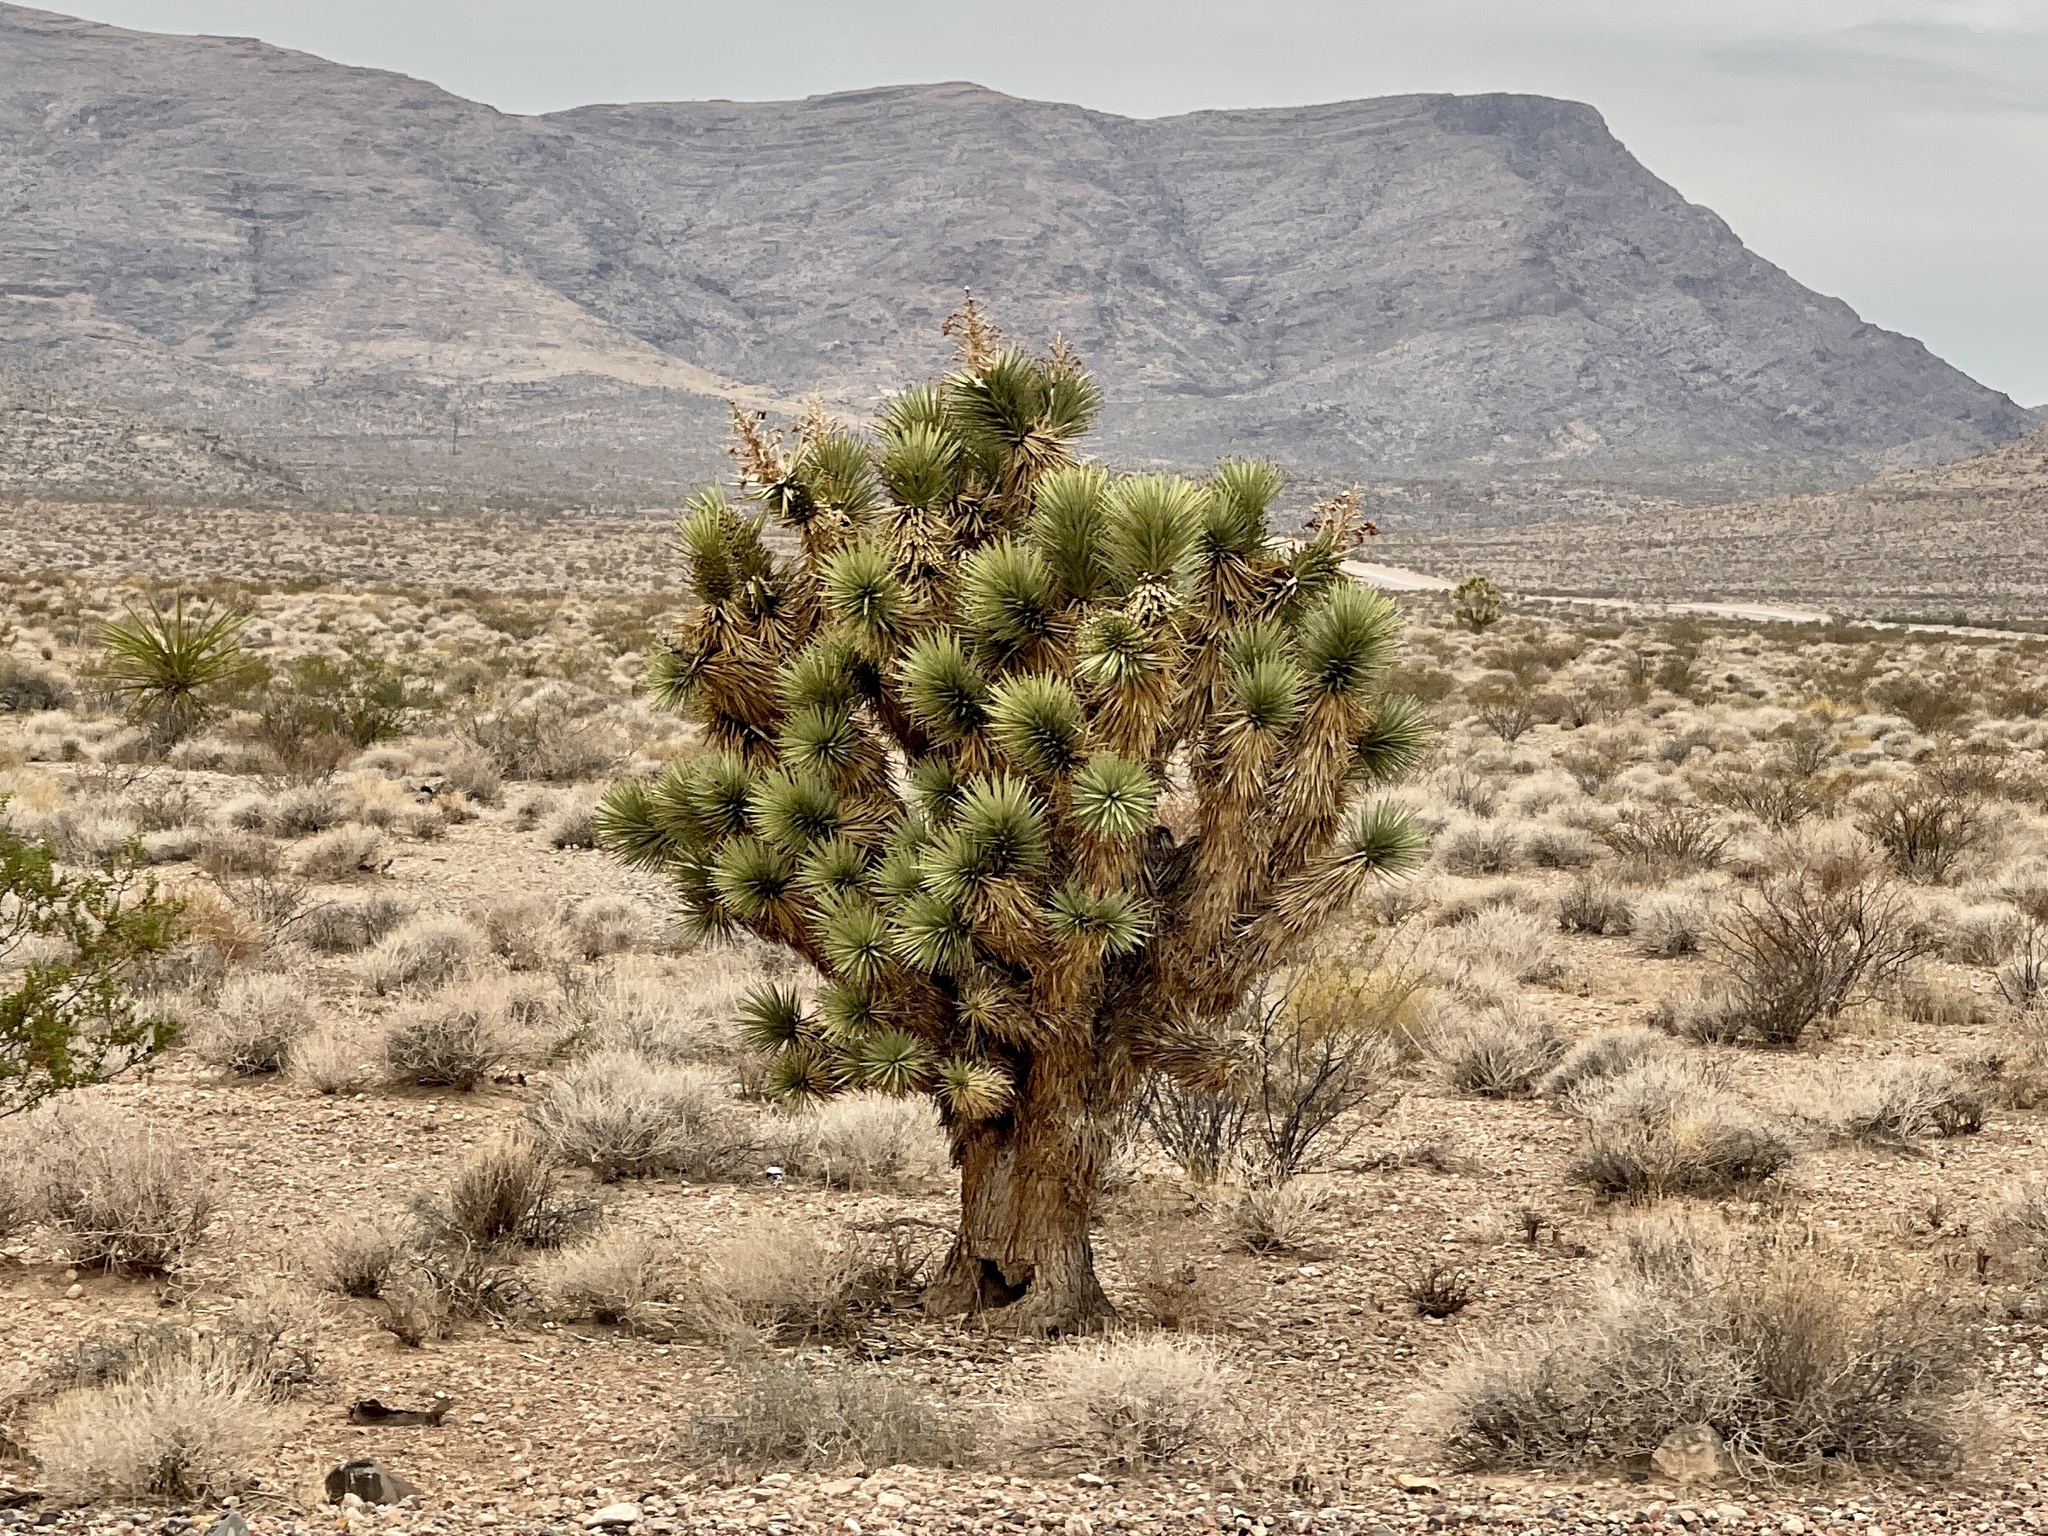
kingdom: Plantae
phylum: Tracheophyta
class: Liliopsida
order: Asparagales
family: Asparagaceae
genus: Yucca
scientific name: Yucca brevifolia
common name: Joshua tree
